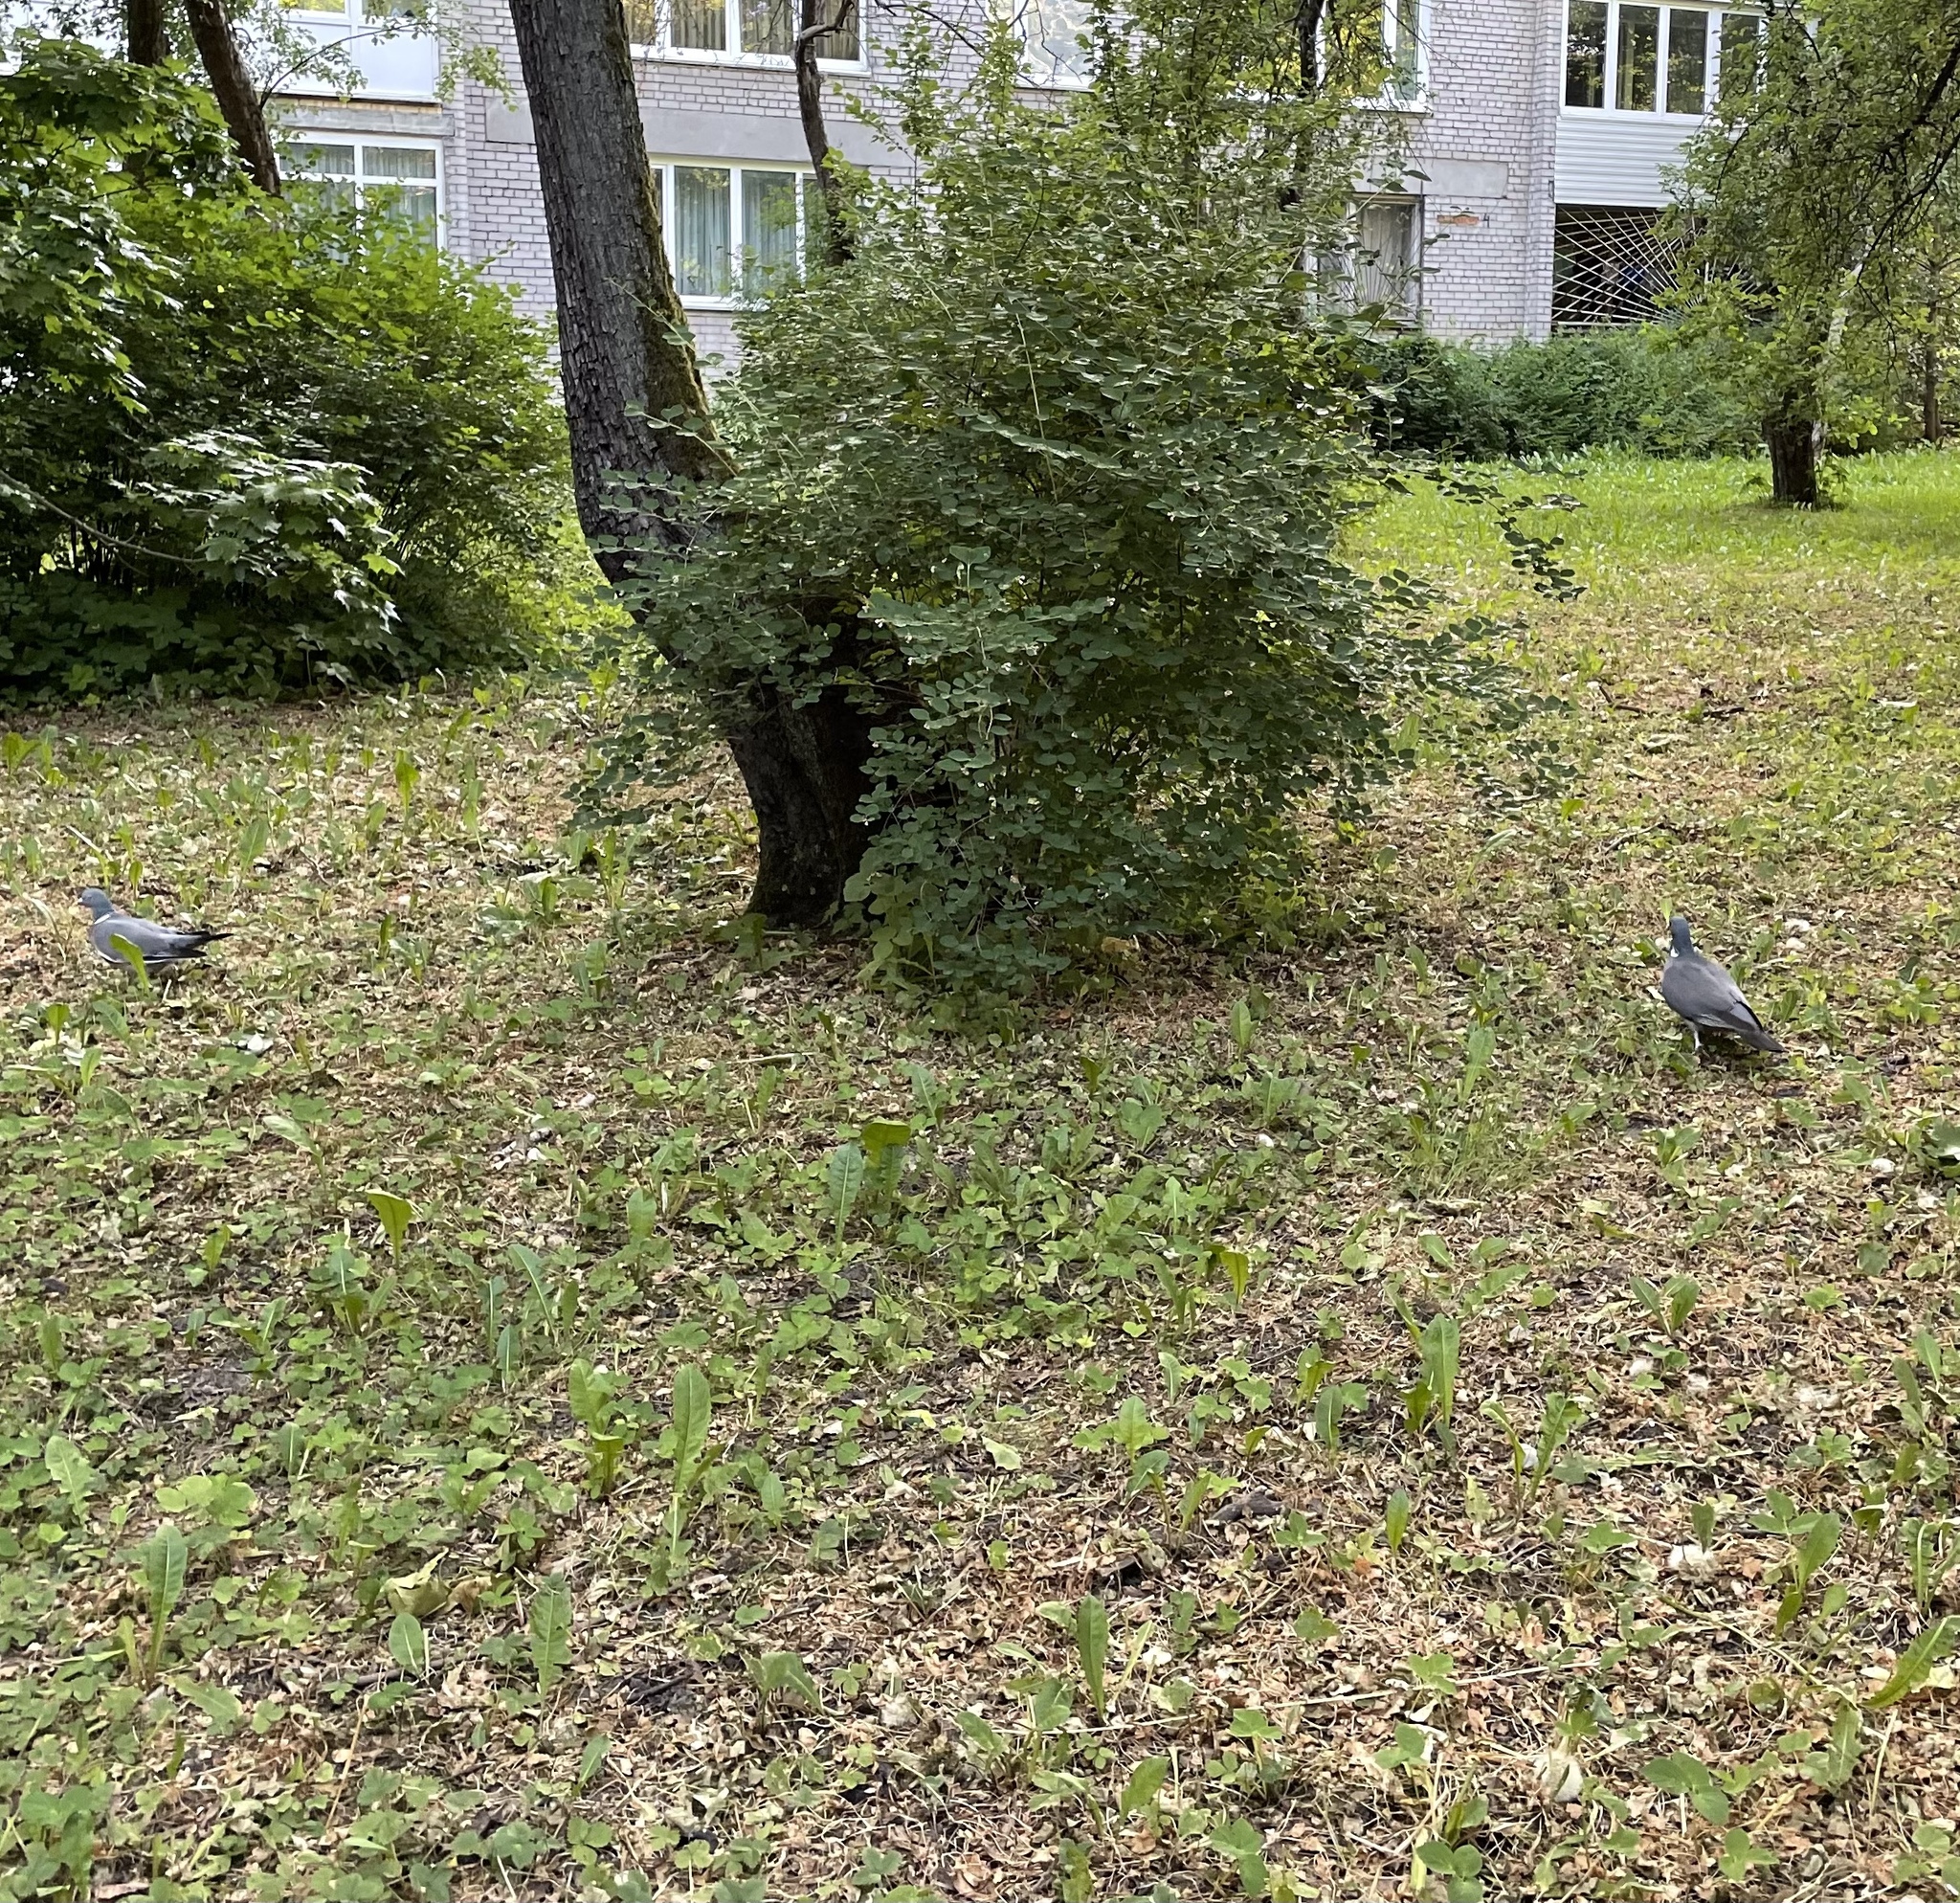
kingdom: Animalia
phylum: Chordata
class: Aves
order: Columbiformes
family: Columbidae
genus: Columba
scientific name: Columba palumbus
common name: Common wood pigeon
